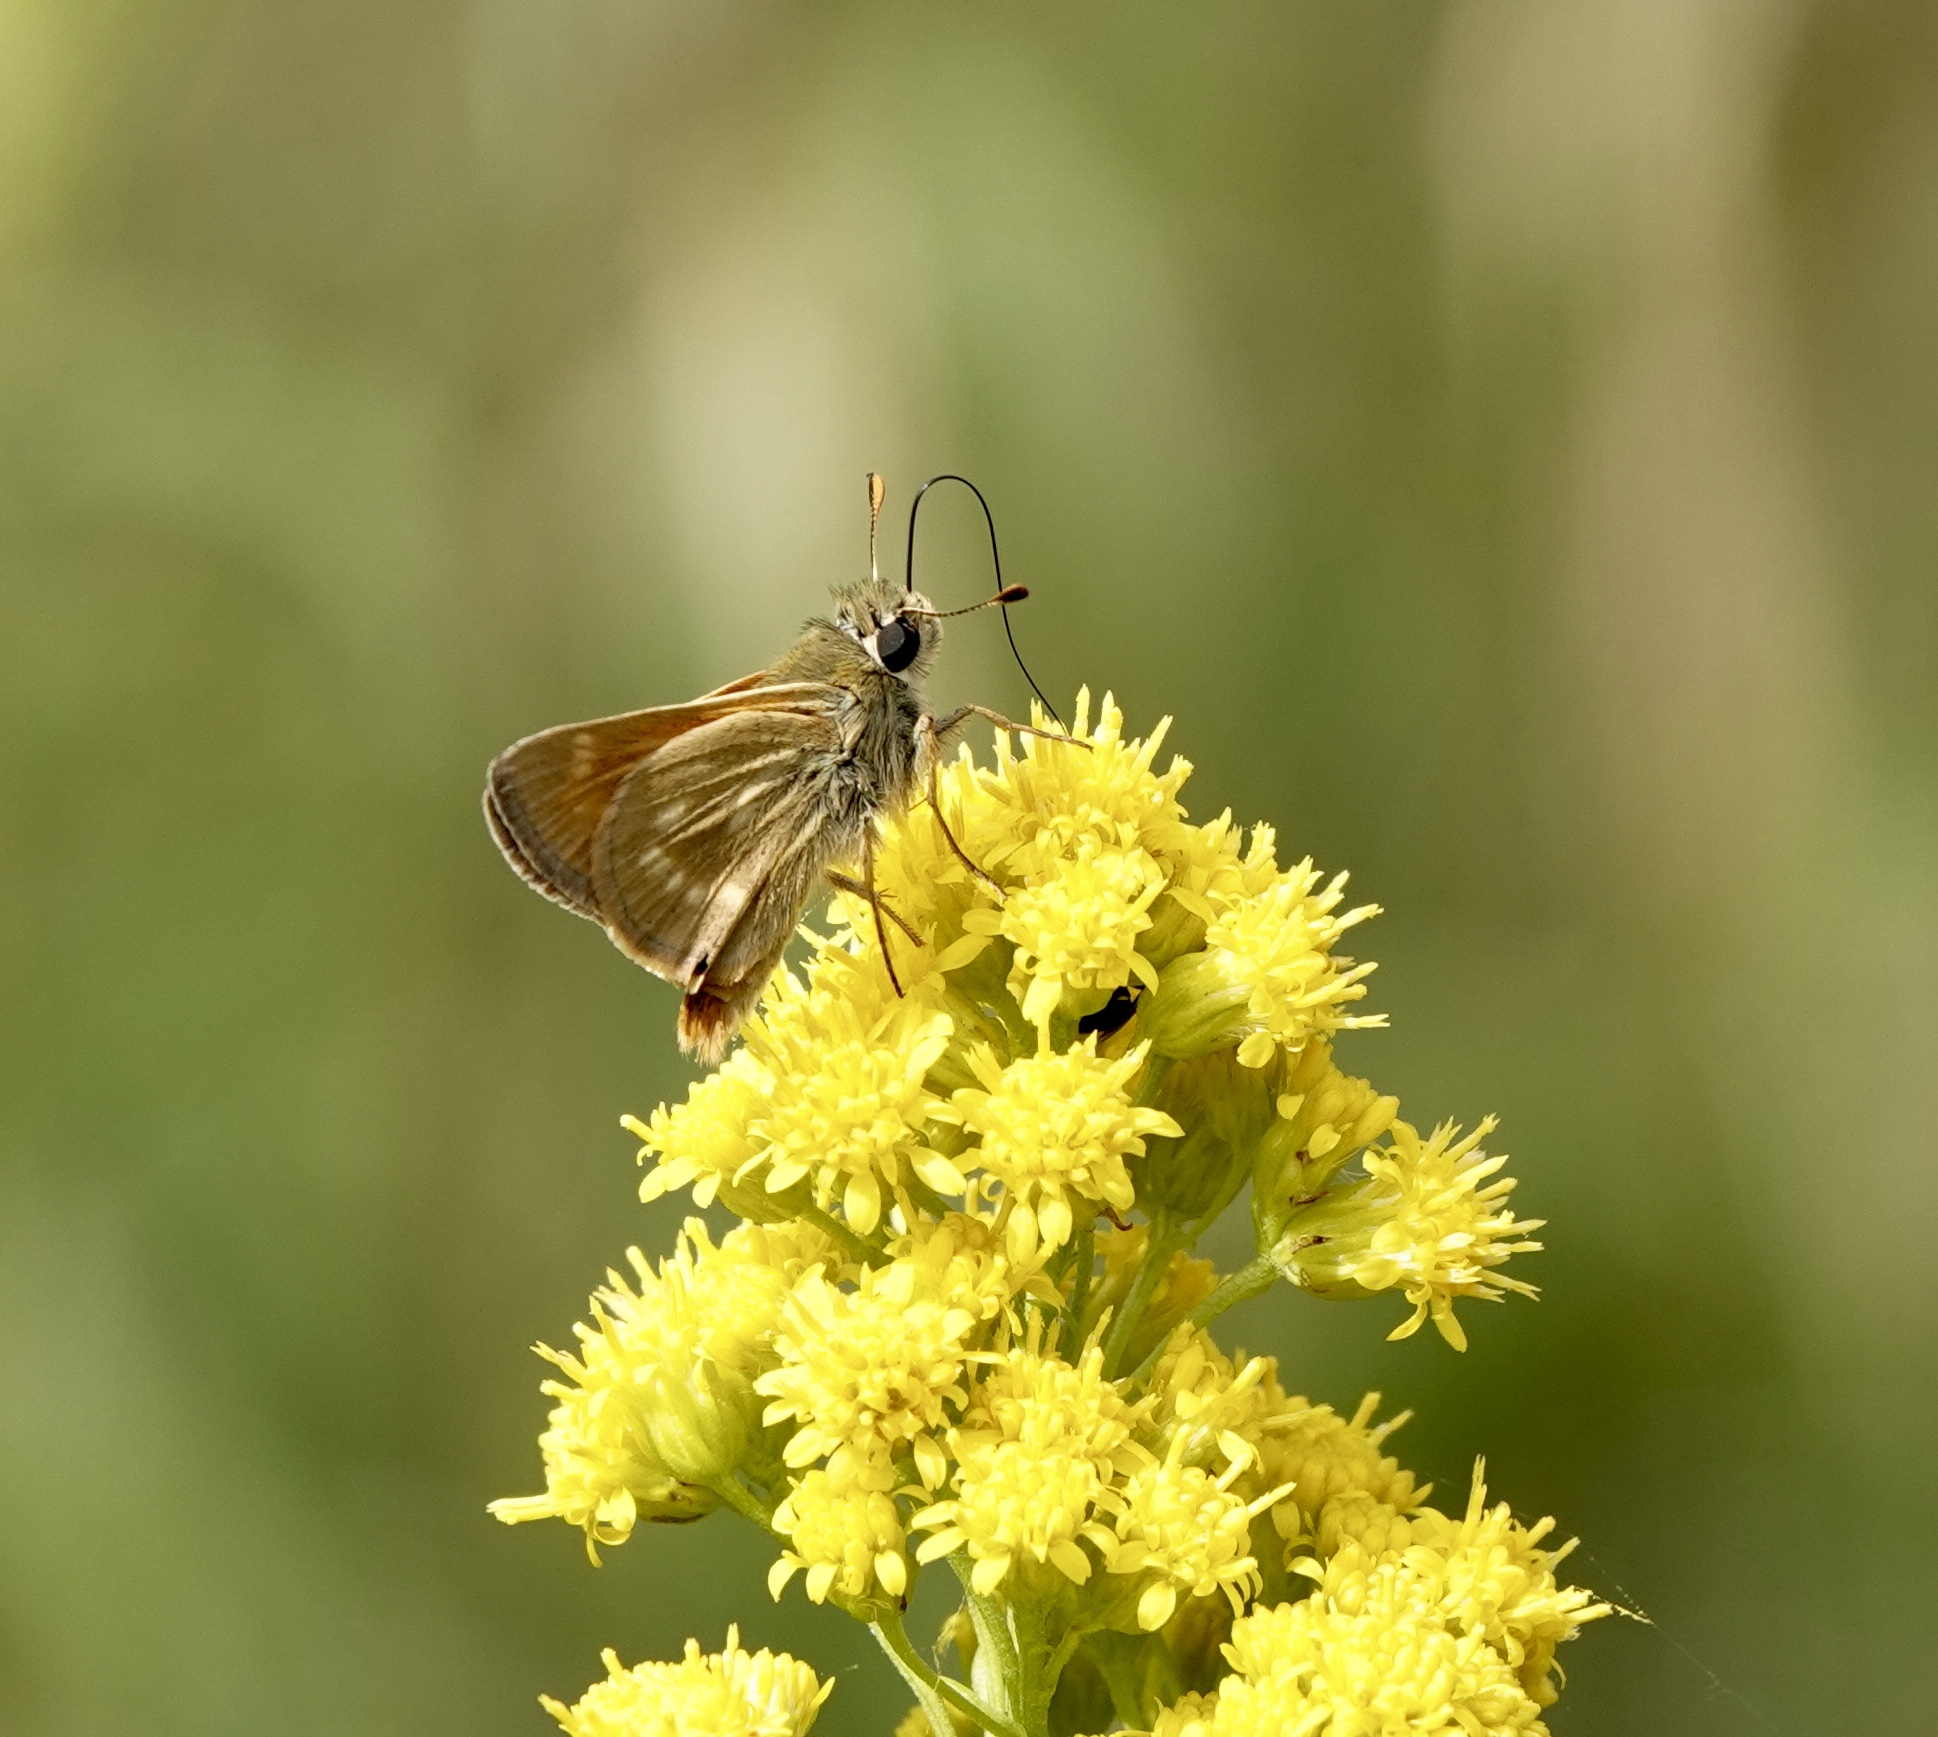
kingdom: Animalia
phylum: Arthropoda
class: Insecta
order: Lepidoptera
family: Hesperiidae
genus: Polites
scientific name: Polites mystic
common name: Long dash
